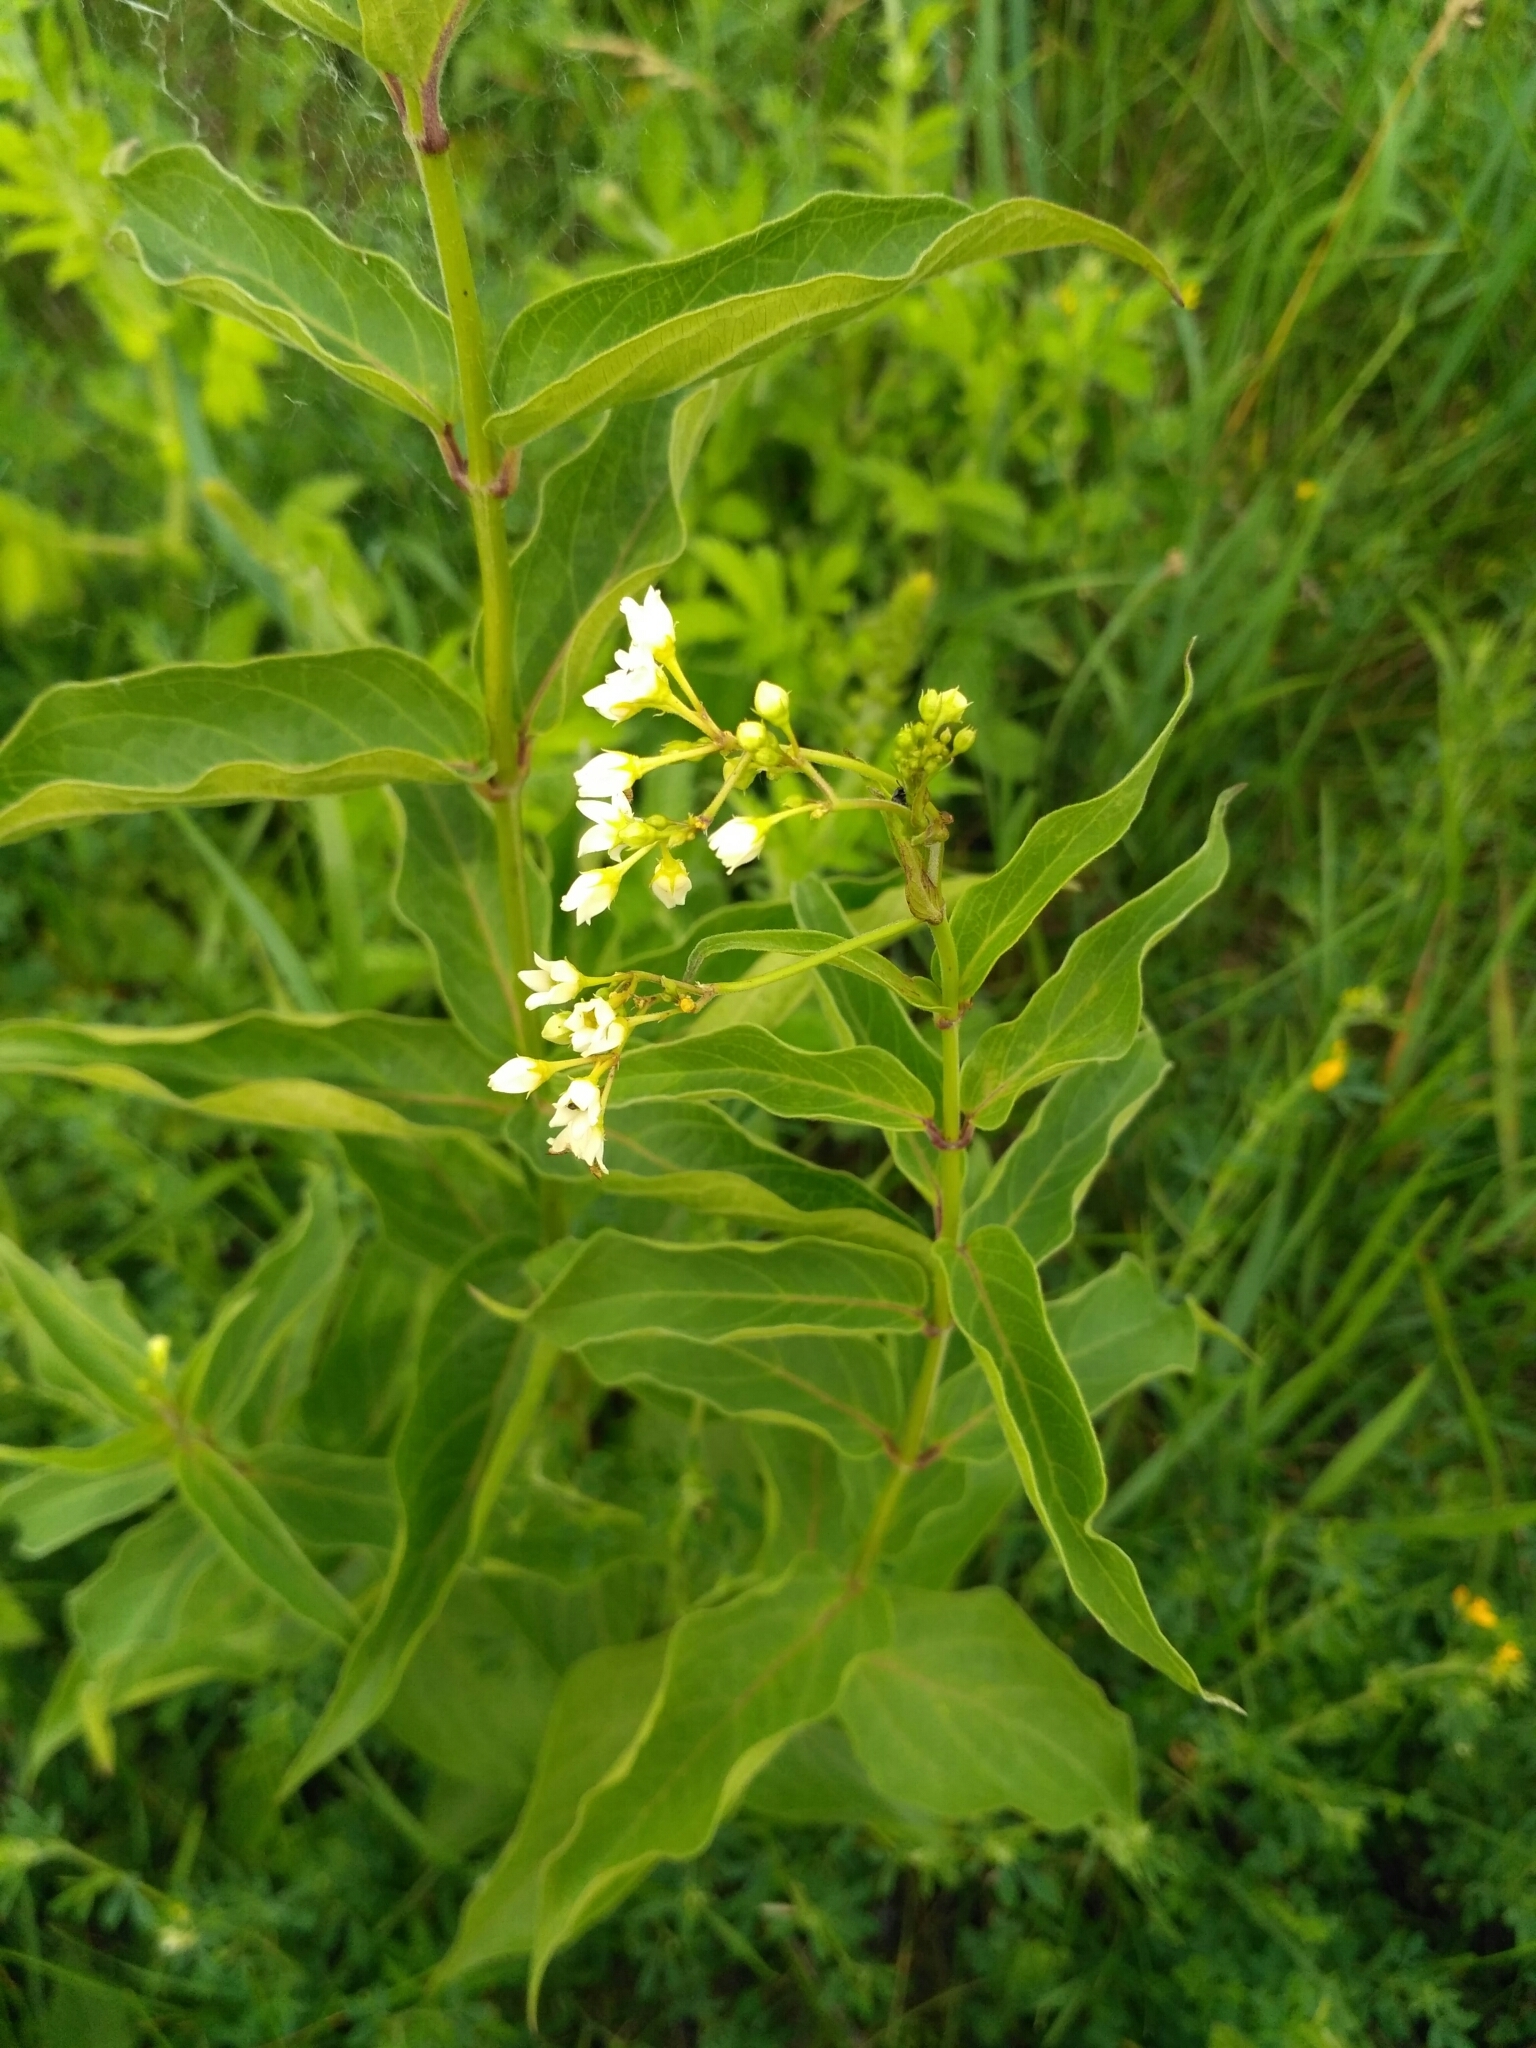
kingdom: Plantae
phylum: Tracheophyta
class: Magnoliopsida
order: Gentianales
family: Apocynaceae
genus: Vincetoxicum
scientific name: Vincetoxicum hirundinaria
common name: White swallowwort
